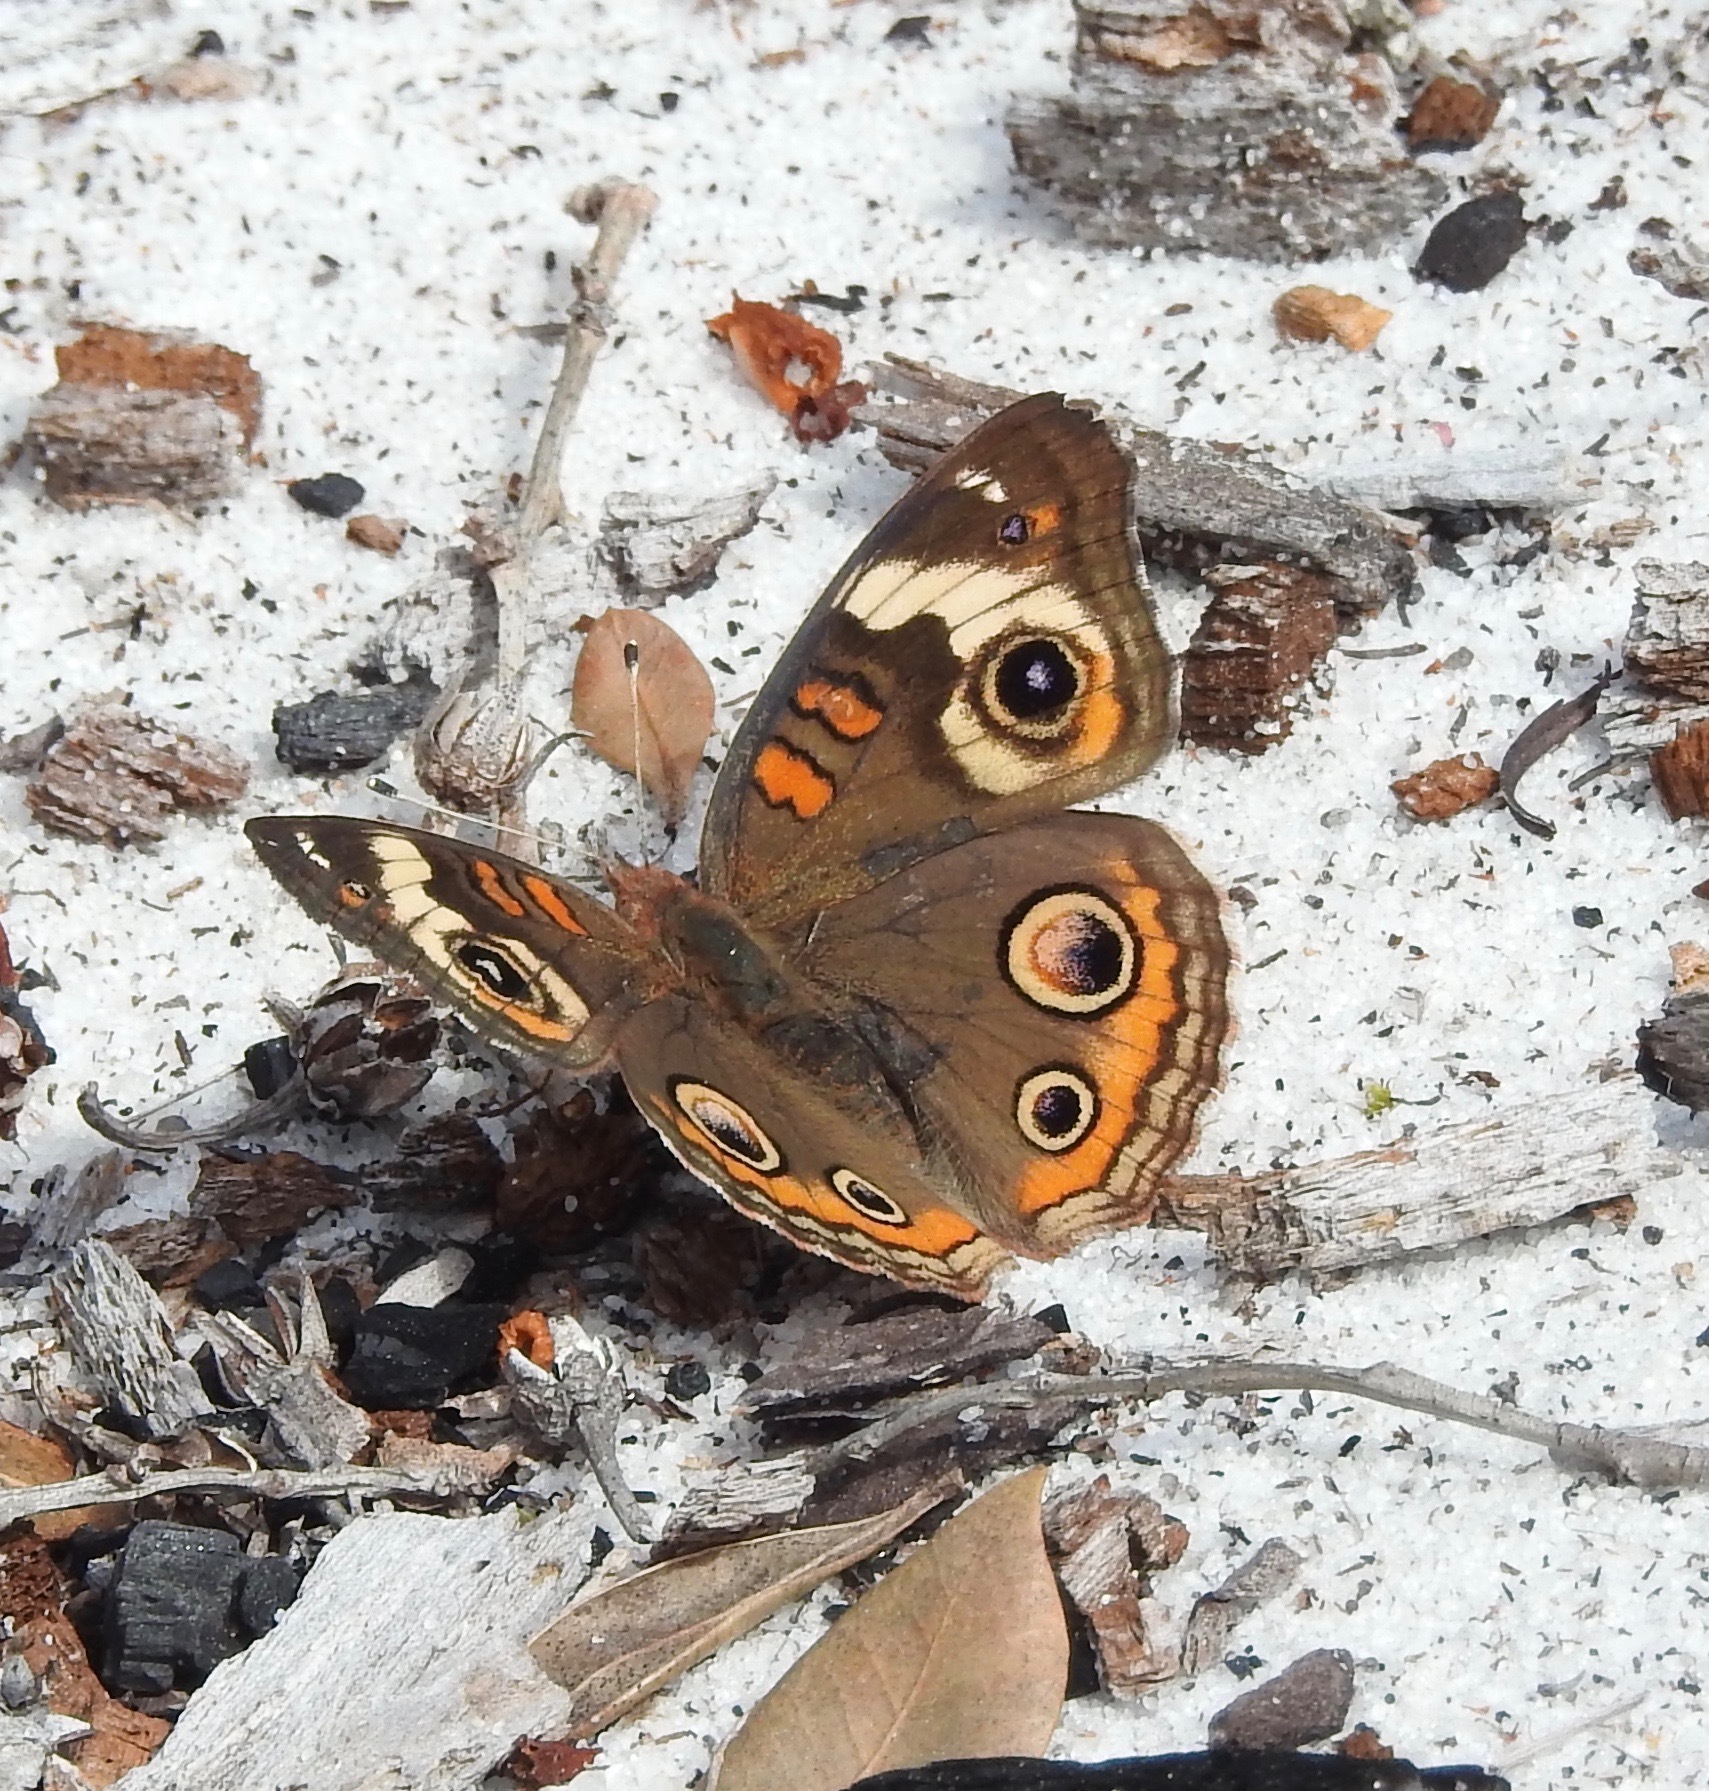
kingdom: Animalia
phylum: Arthropoda
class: Insecta
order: Lepidoptera
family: Nymphalidae
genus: Junonia
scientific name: Junonia coenia
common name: Common buckeye
